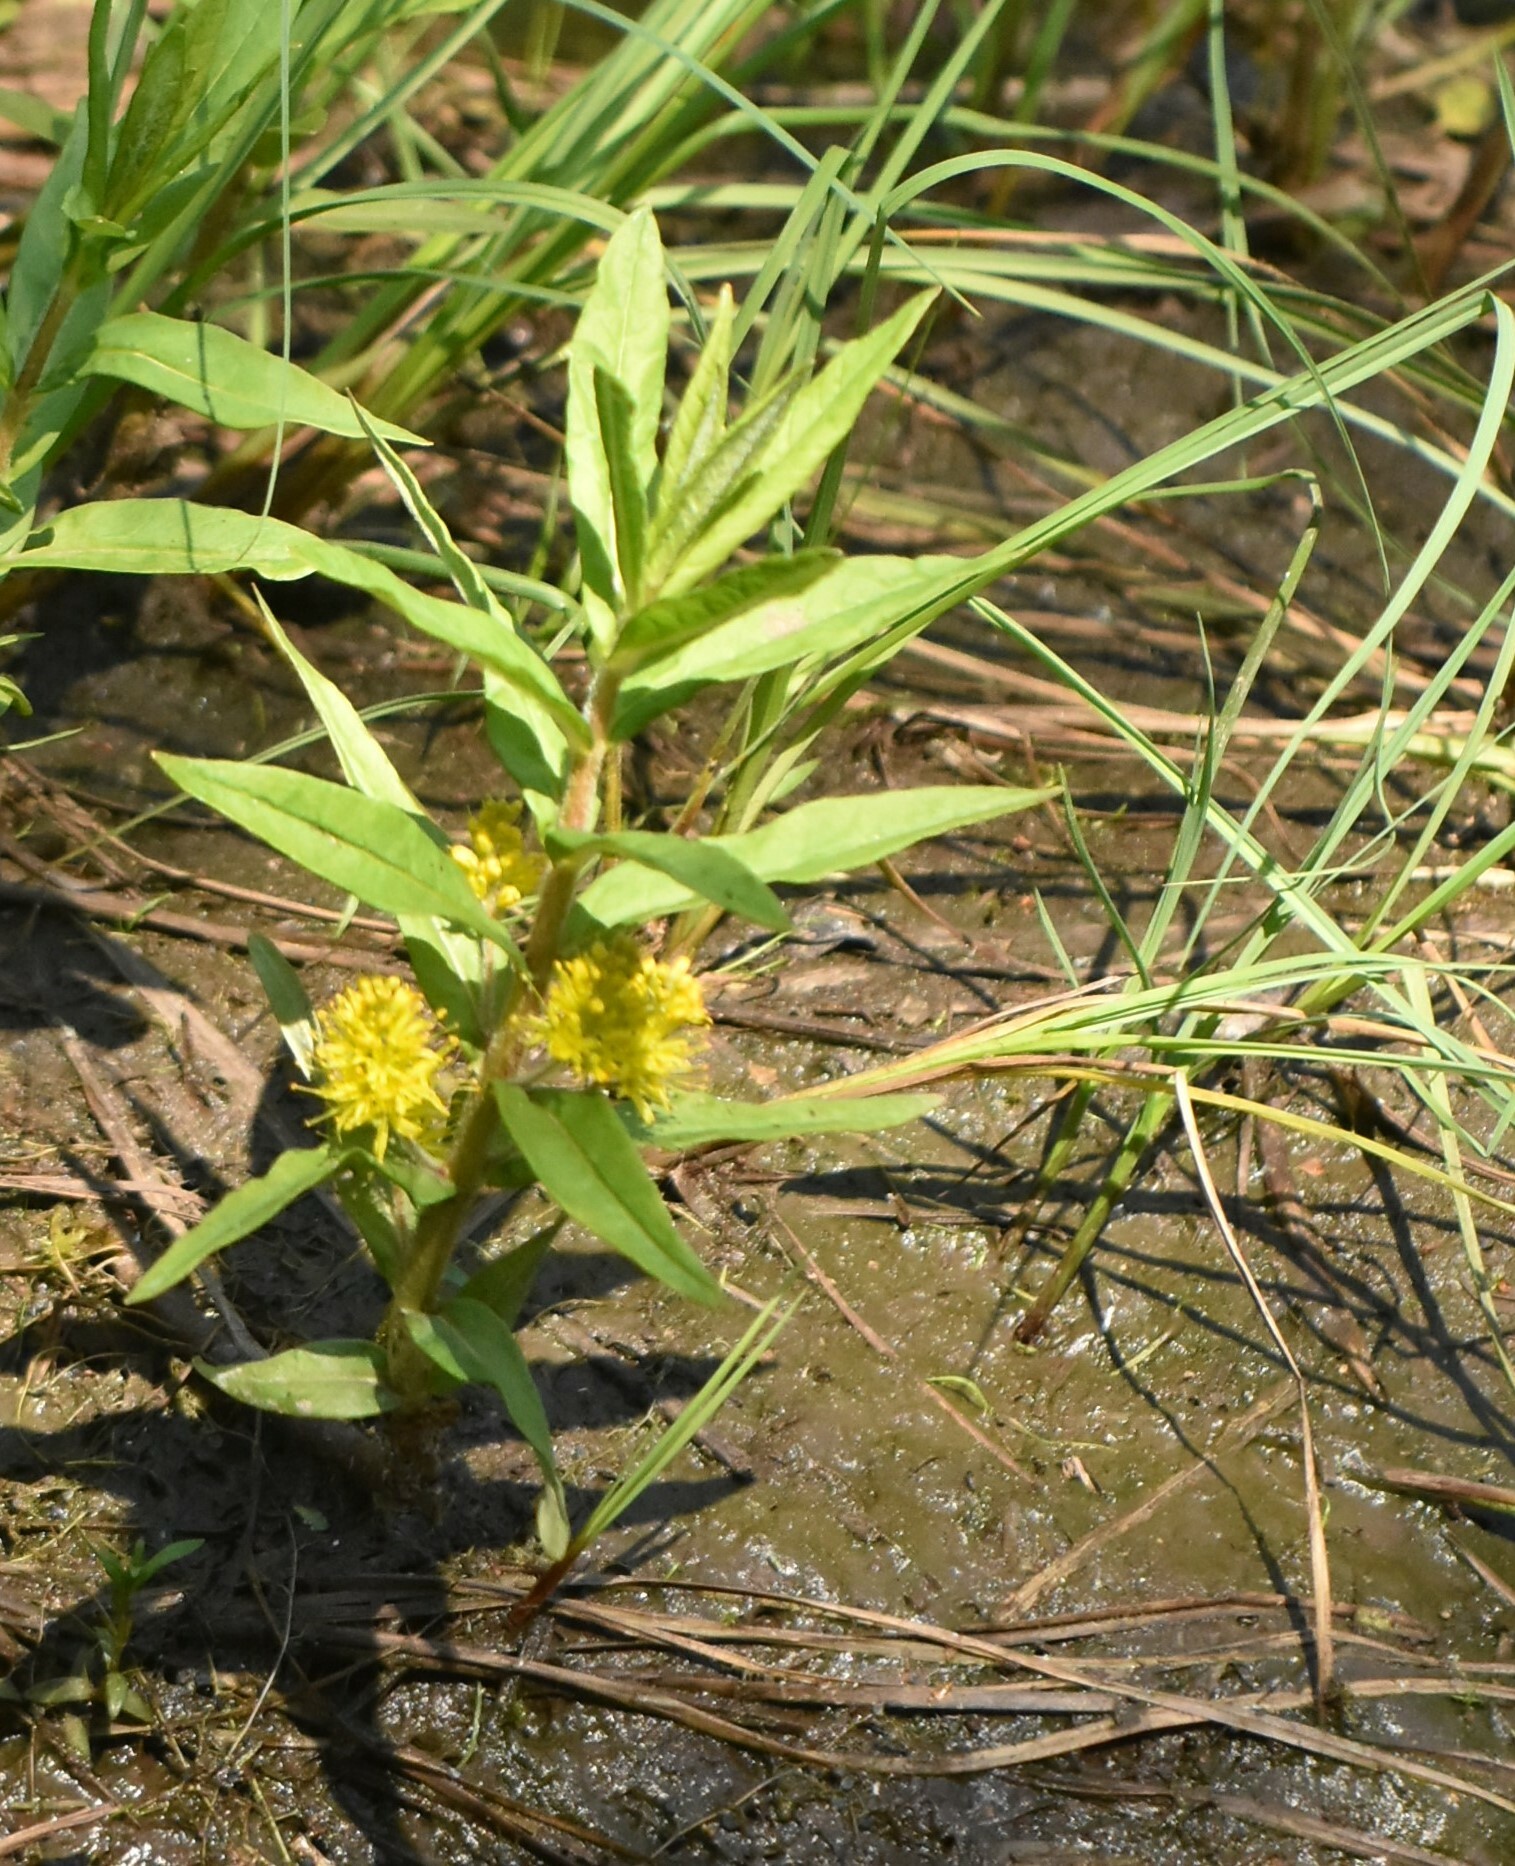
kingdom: Plantae
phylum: Tracheophyta
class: Magnoliopsida
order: Ericales
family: Primulaceae
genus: Lysimachia
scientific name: Lysimachia thyrsiflora
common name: Tufted loosestrife
